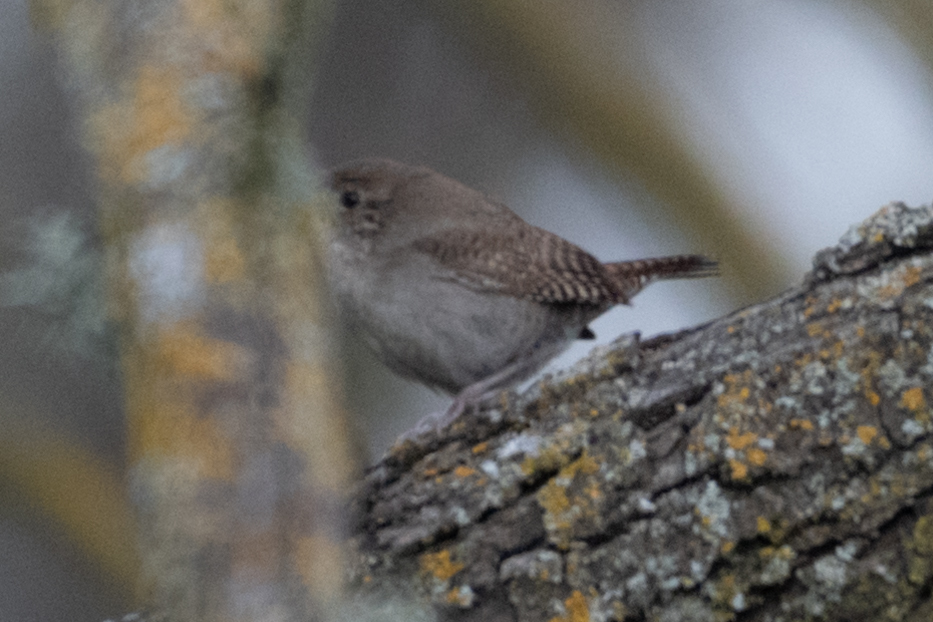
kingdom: Animalia
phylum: Chordata
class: Aves
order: Passeriformes
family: Troglodytidae
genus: Troglodytes
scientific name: Troglodytes aedon
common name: House wren
